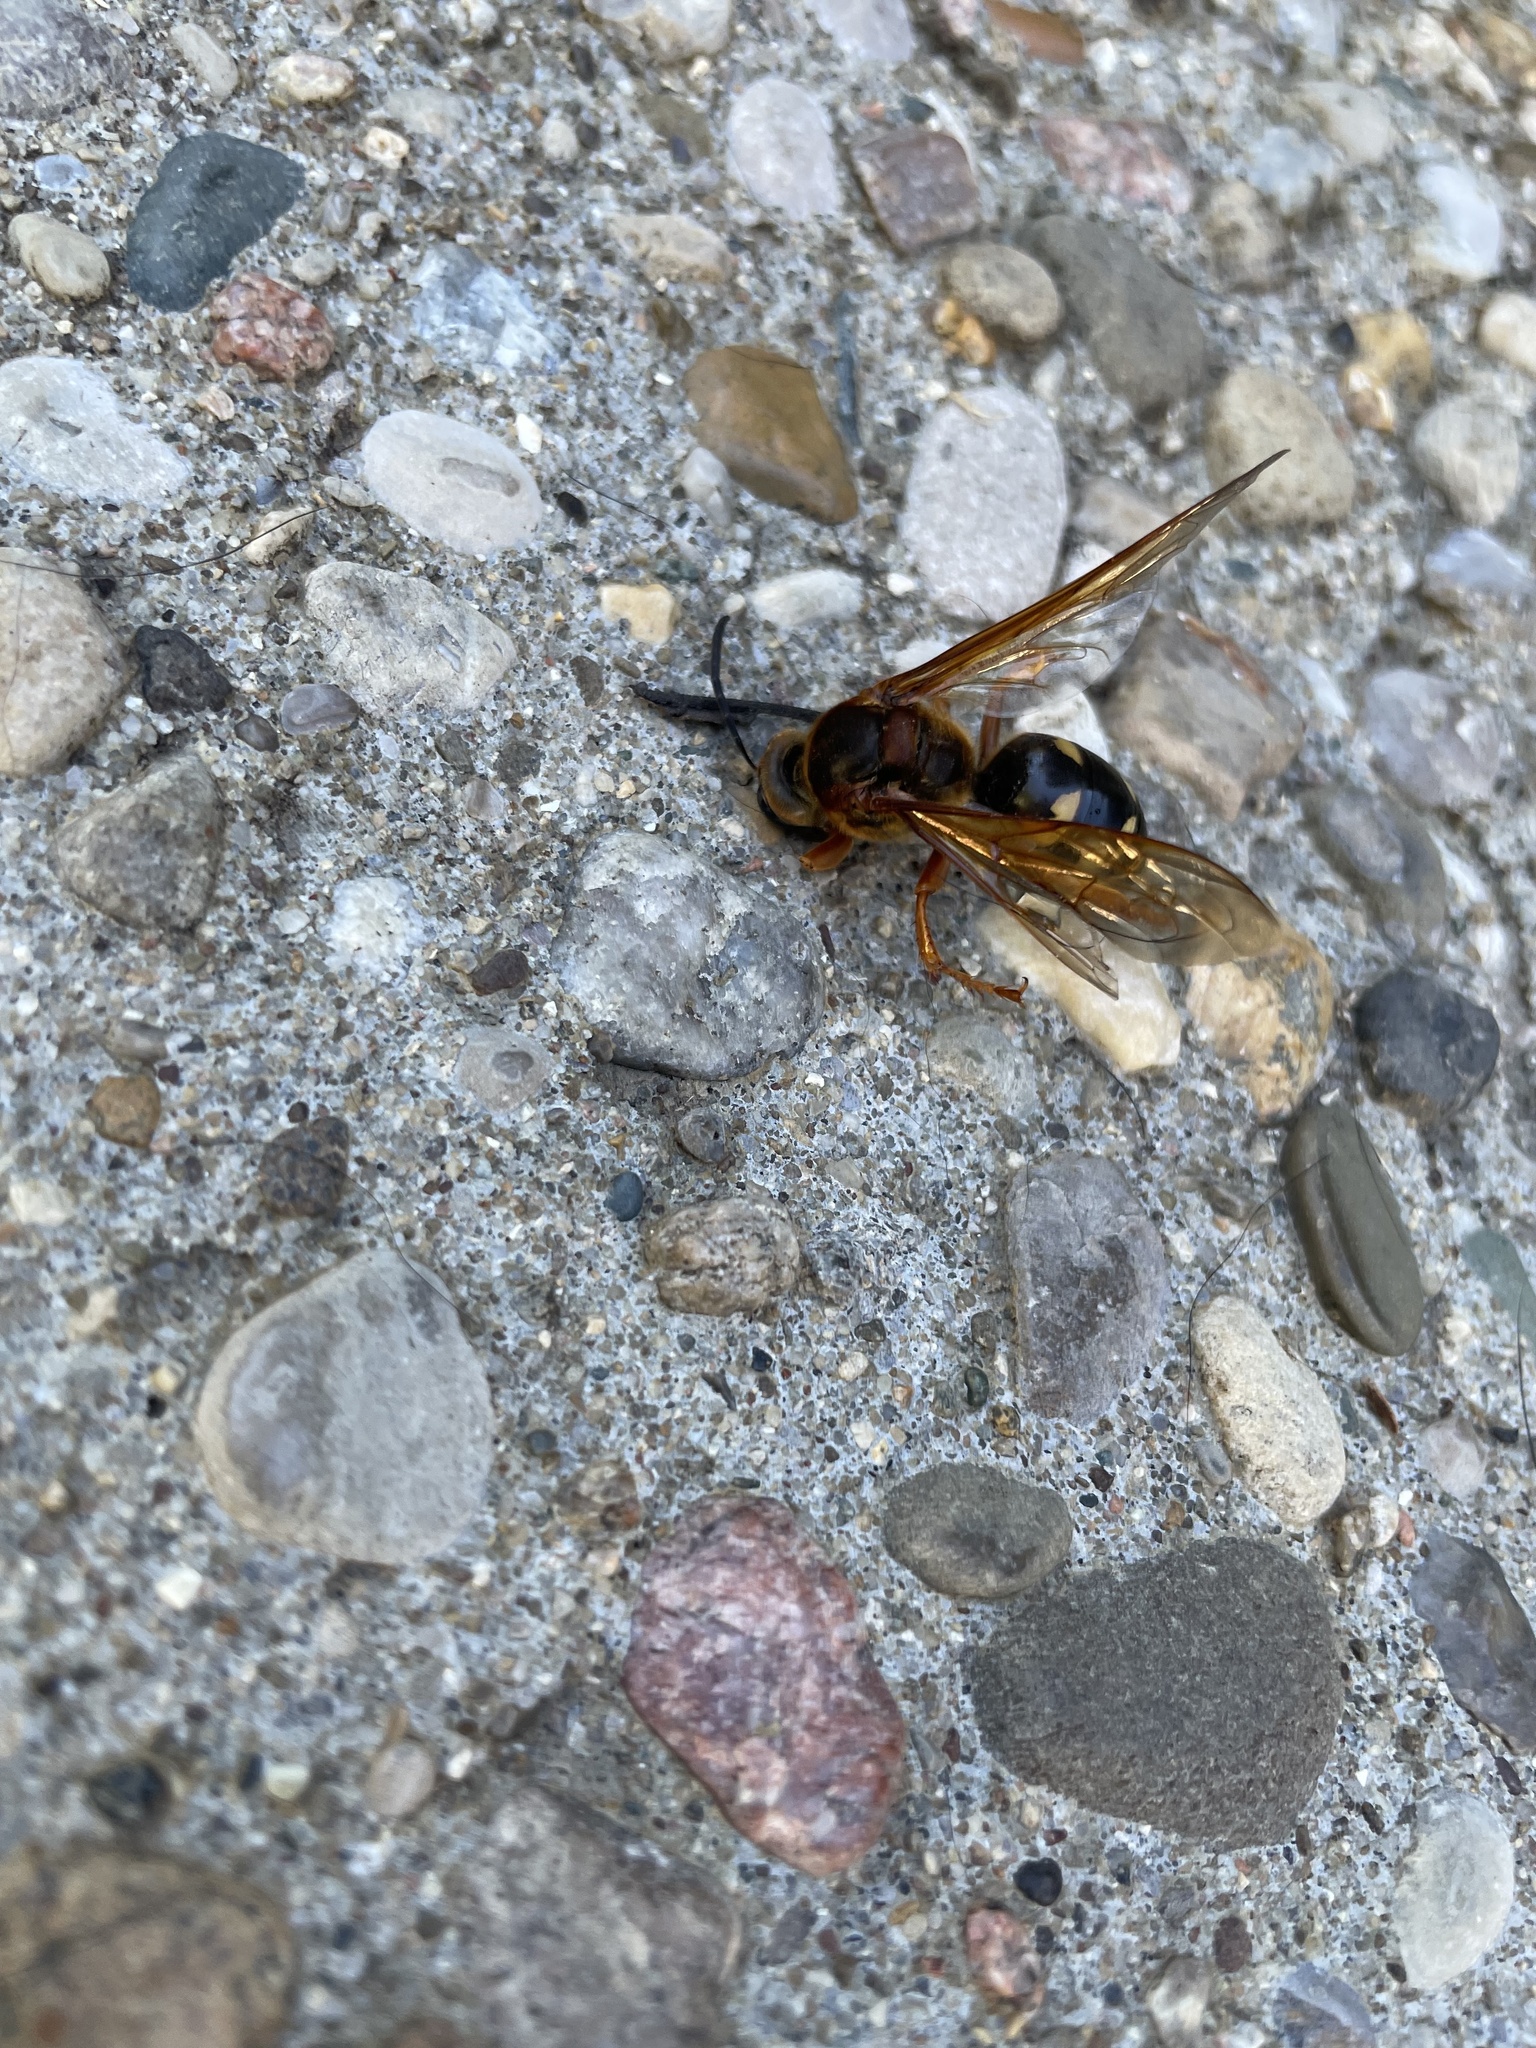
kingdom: Animalia
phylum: Arthropoda
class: Insecta
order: Hymenoptera
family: Crabronidae
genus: Sphecius
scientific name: Sphecius speciosus
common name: Cicada killer
